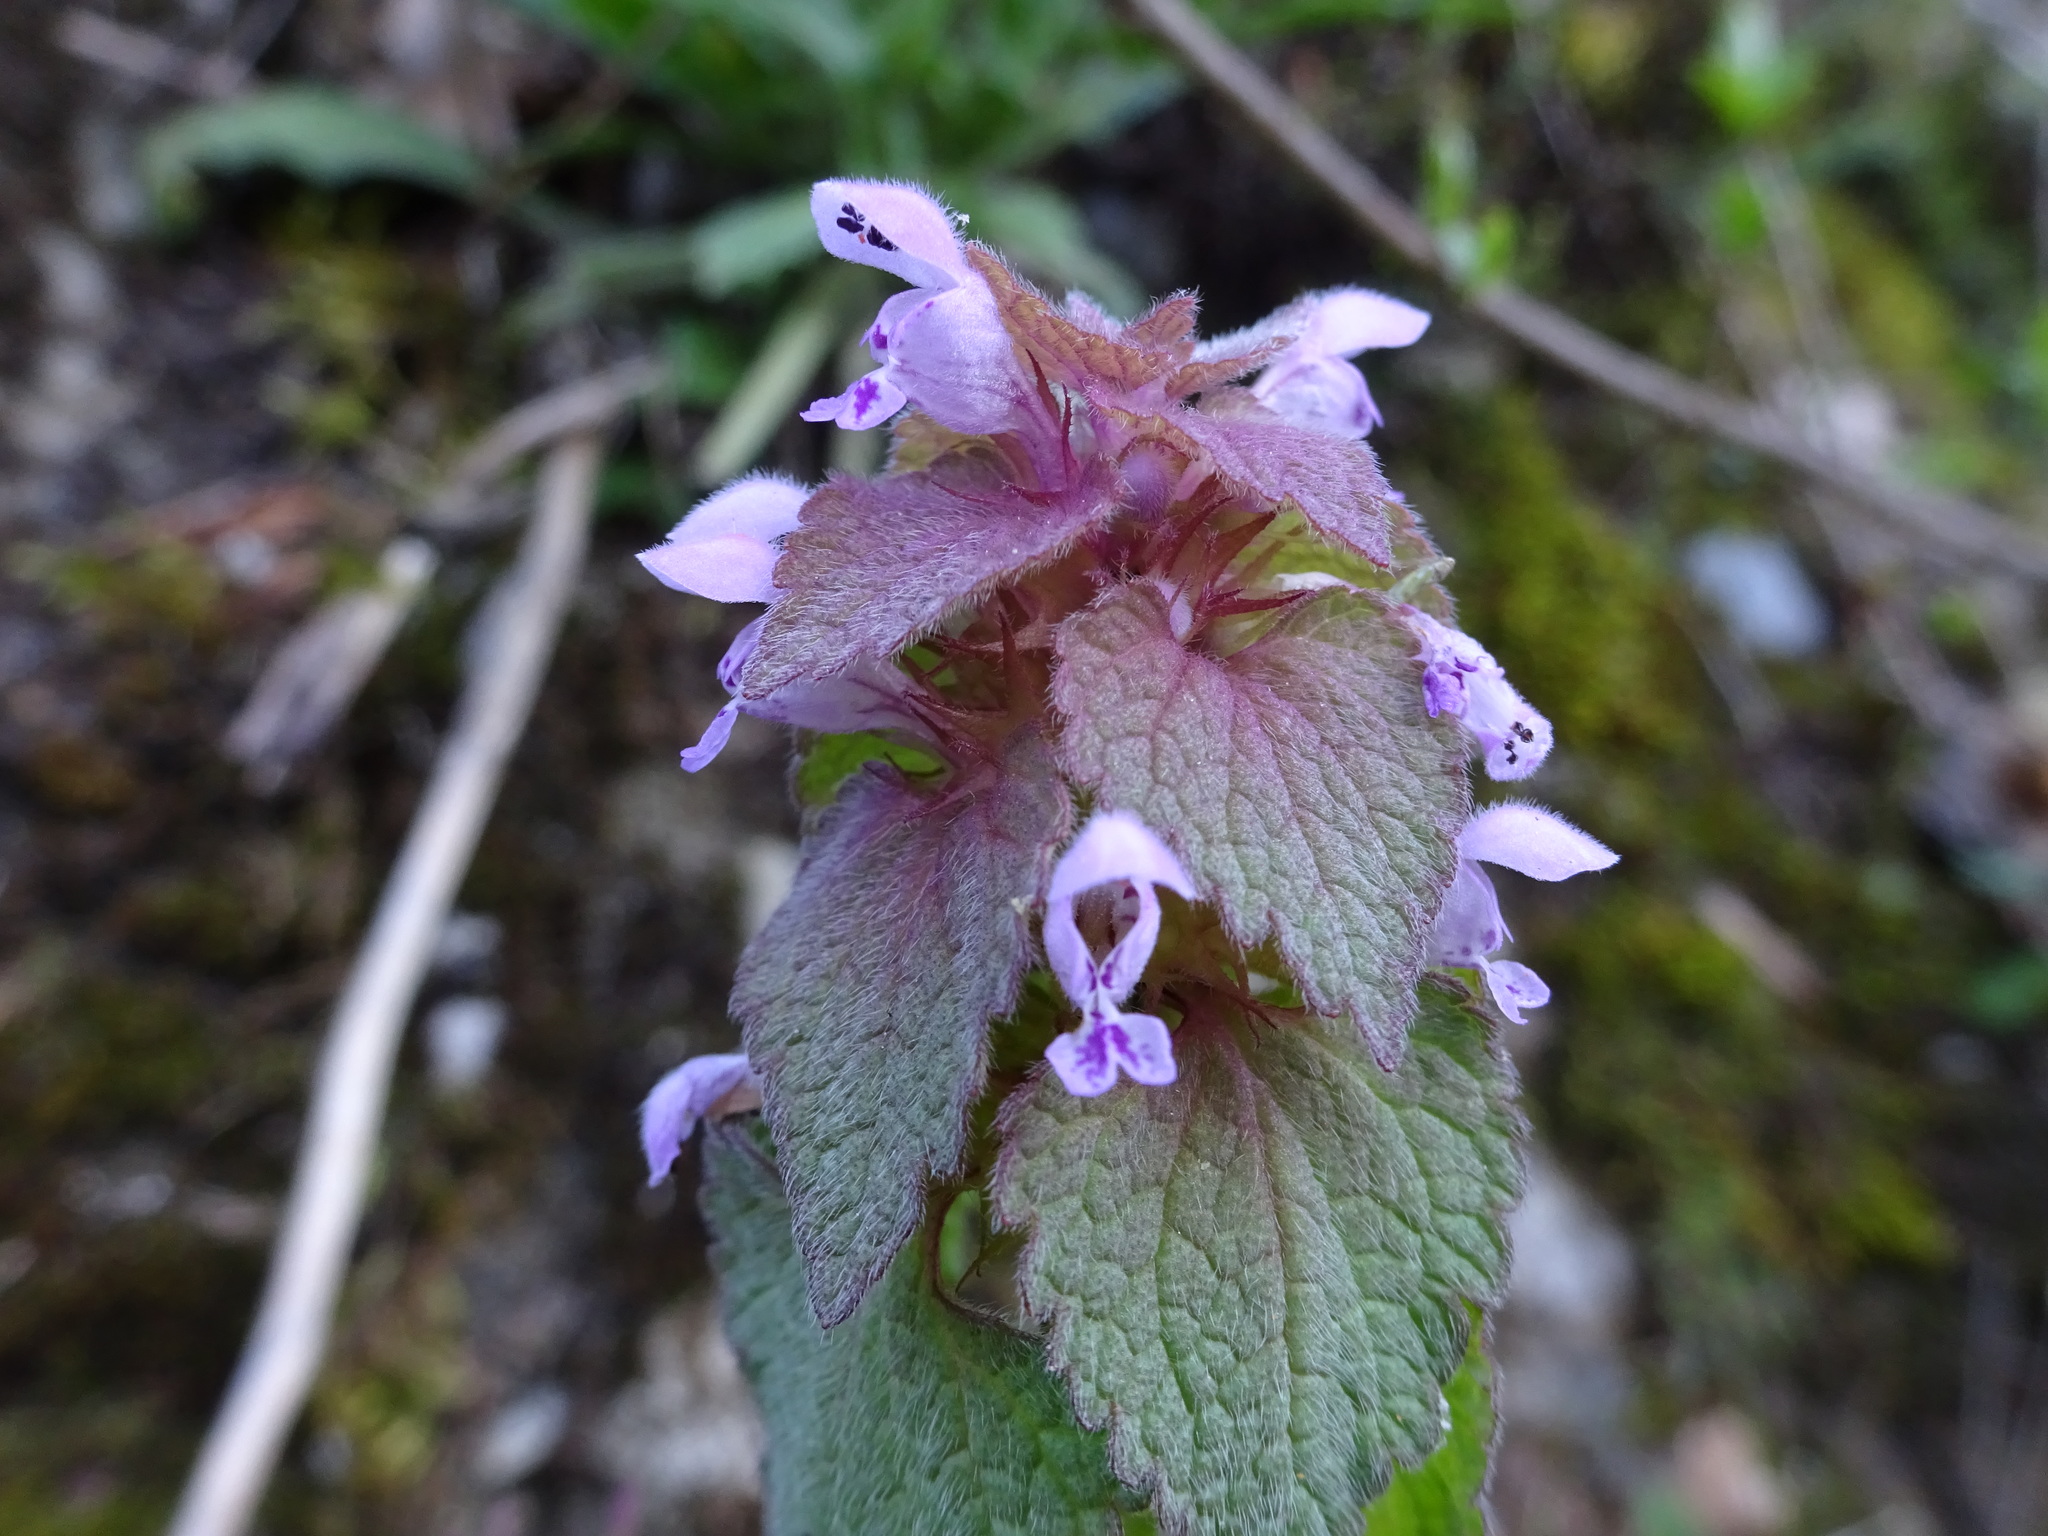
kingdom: Plantae
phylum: Tracheophyta
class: Magnoliopsida
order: Lamiales
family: Lamiaceae
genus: Lamium
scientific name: Lamium purpureum
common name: Red dead-nettle
